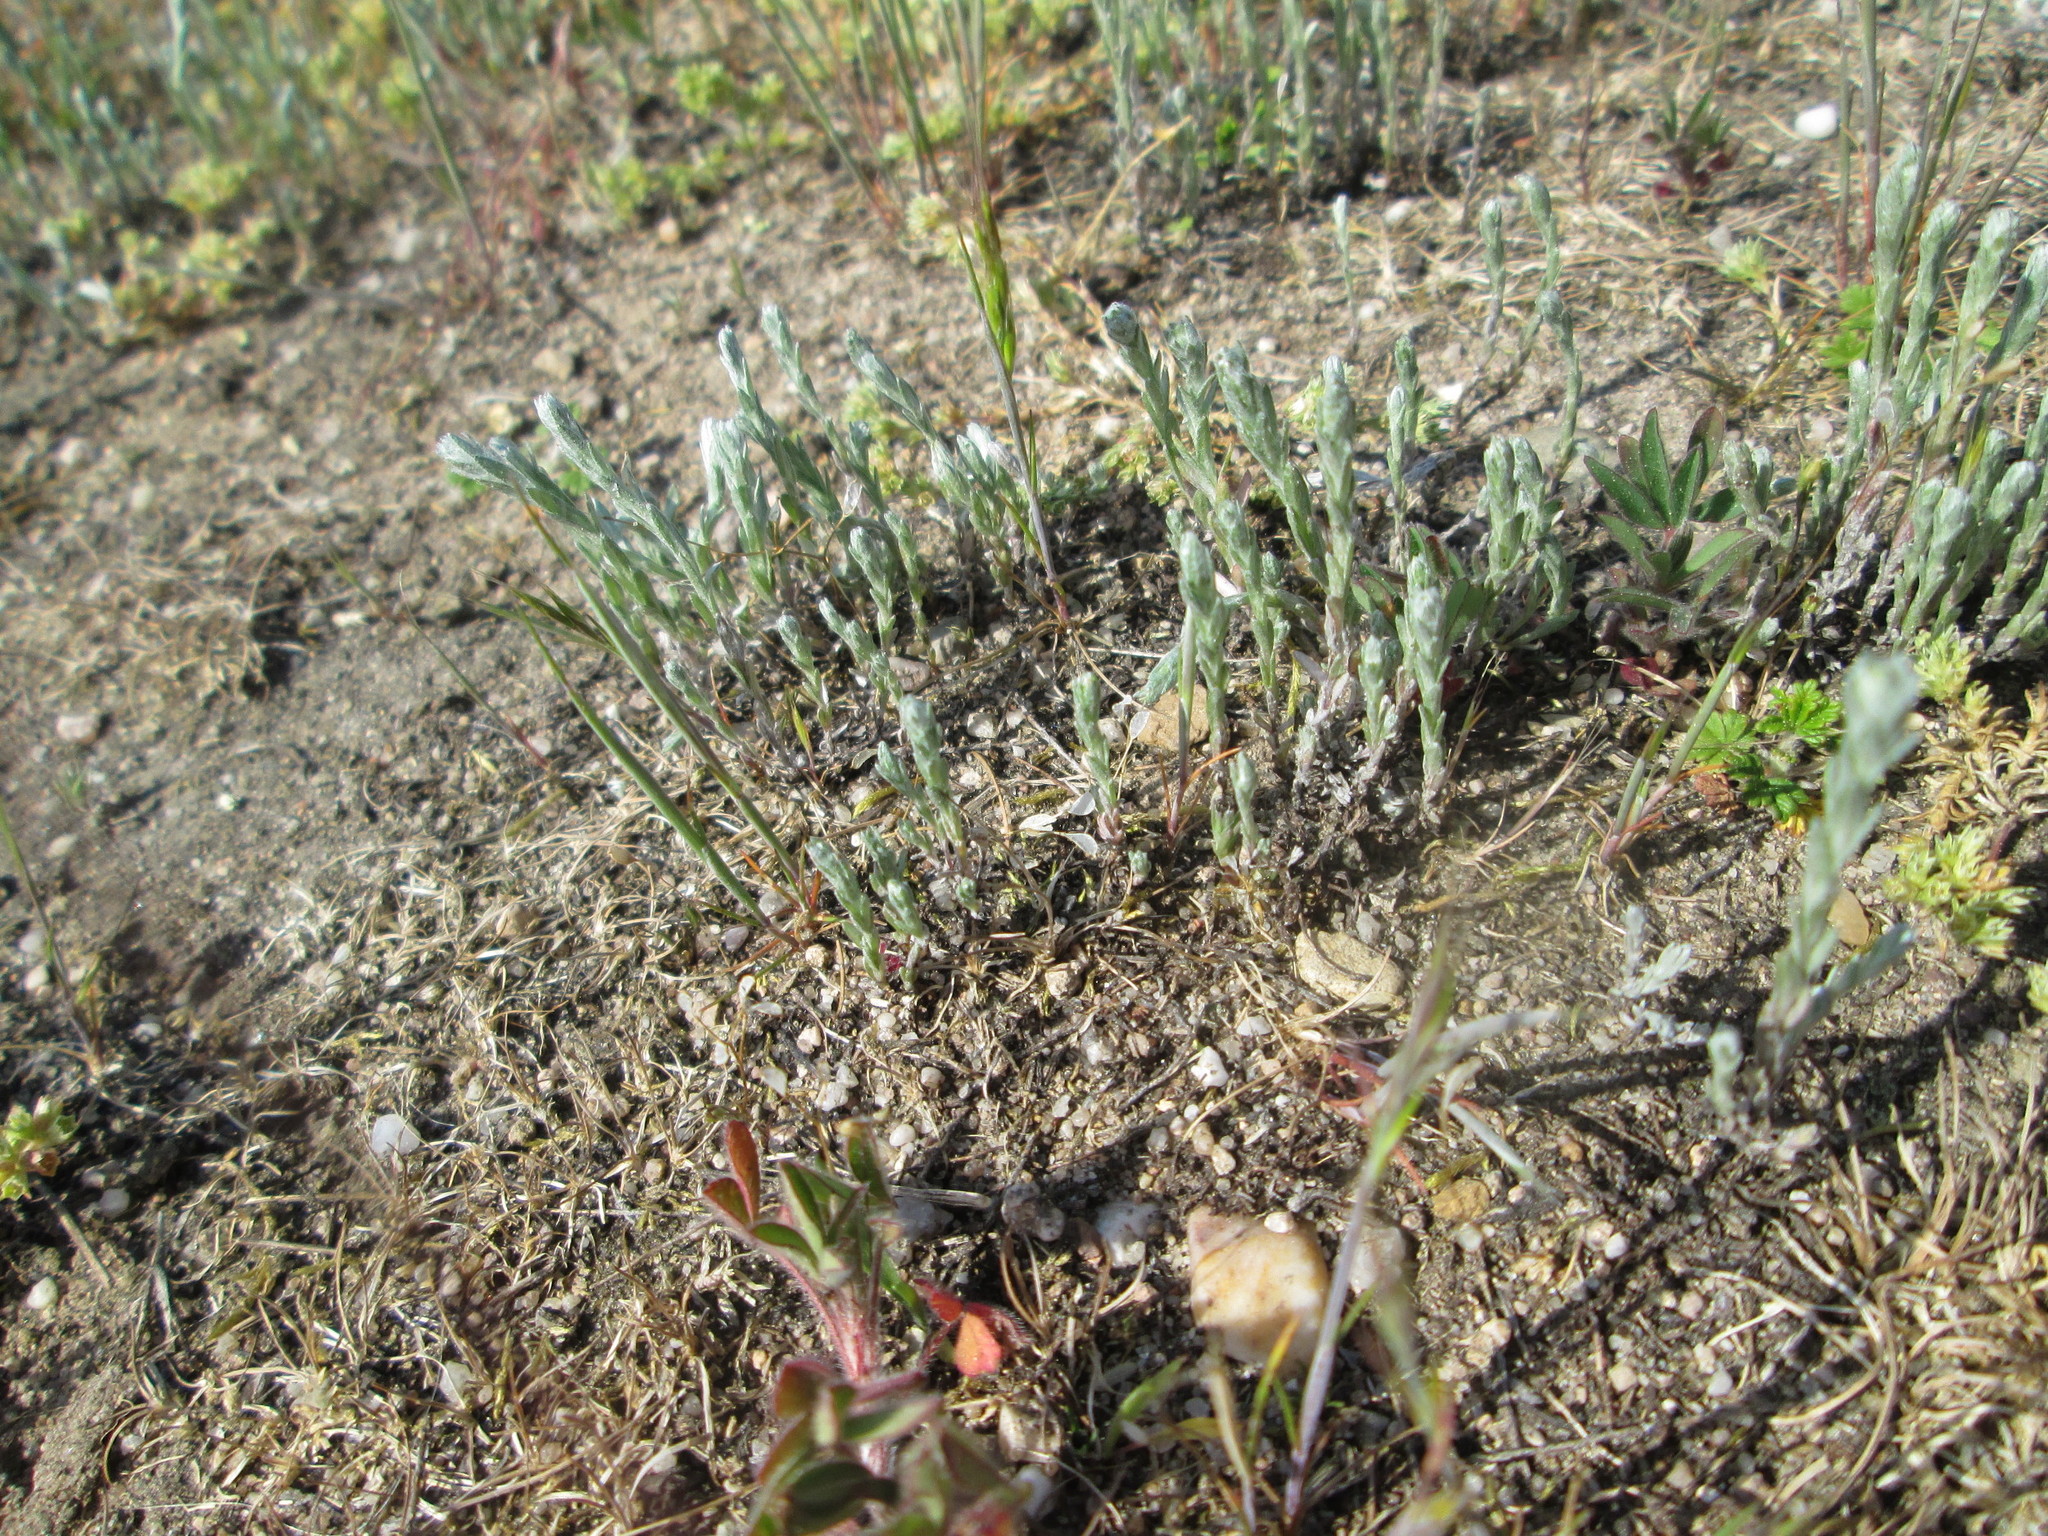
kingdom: Plantae
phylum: Tracheophyta
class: Magnoliopsida
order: Asterales
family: Asteraceae
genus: Filago
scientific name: Filago arvensis
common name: Field cudweed
